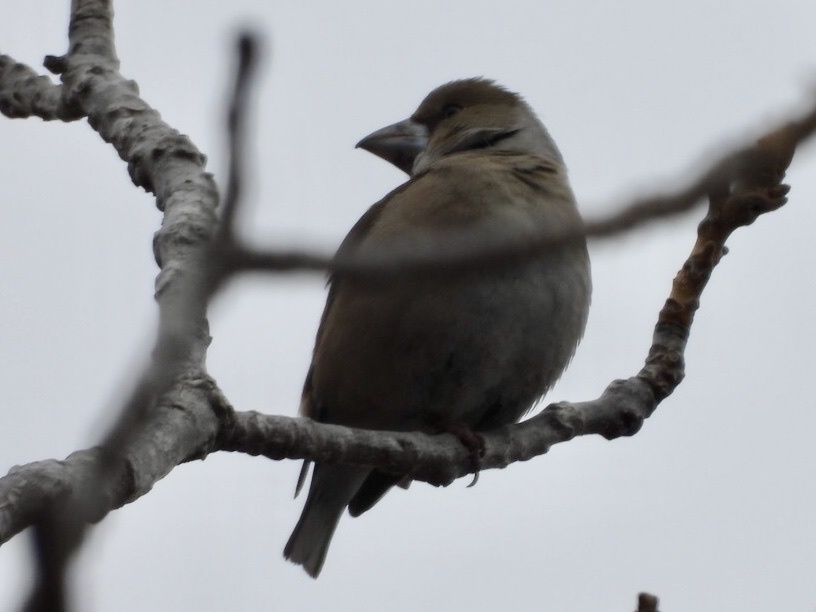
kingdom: Animalia
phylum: Chordata
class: Aves
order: Passeriformes
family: Fringillidae
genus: Coccothraustes
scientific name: Coccothraustes coccothraustes
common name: Hawfinch
